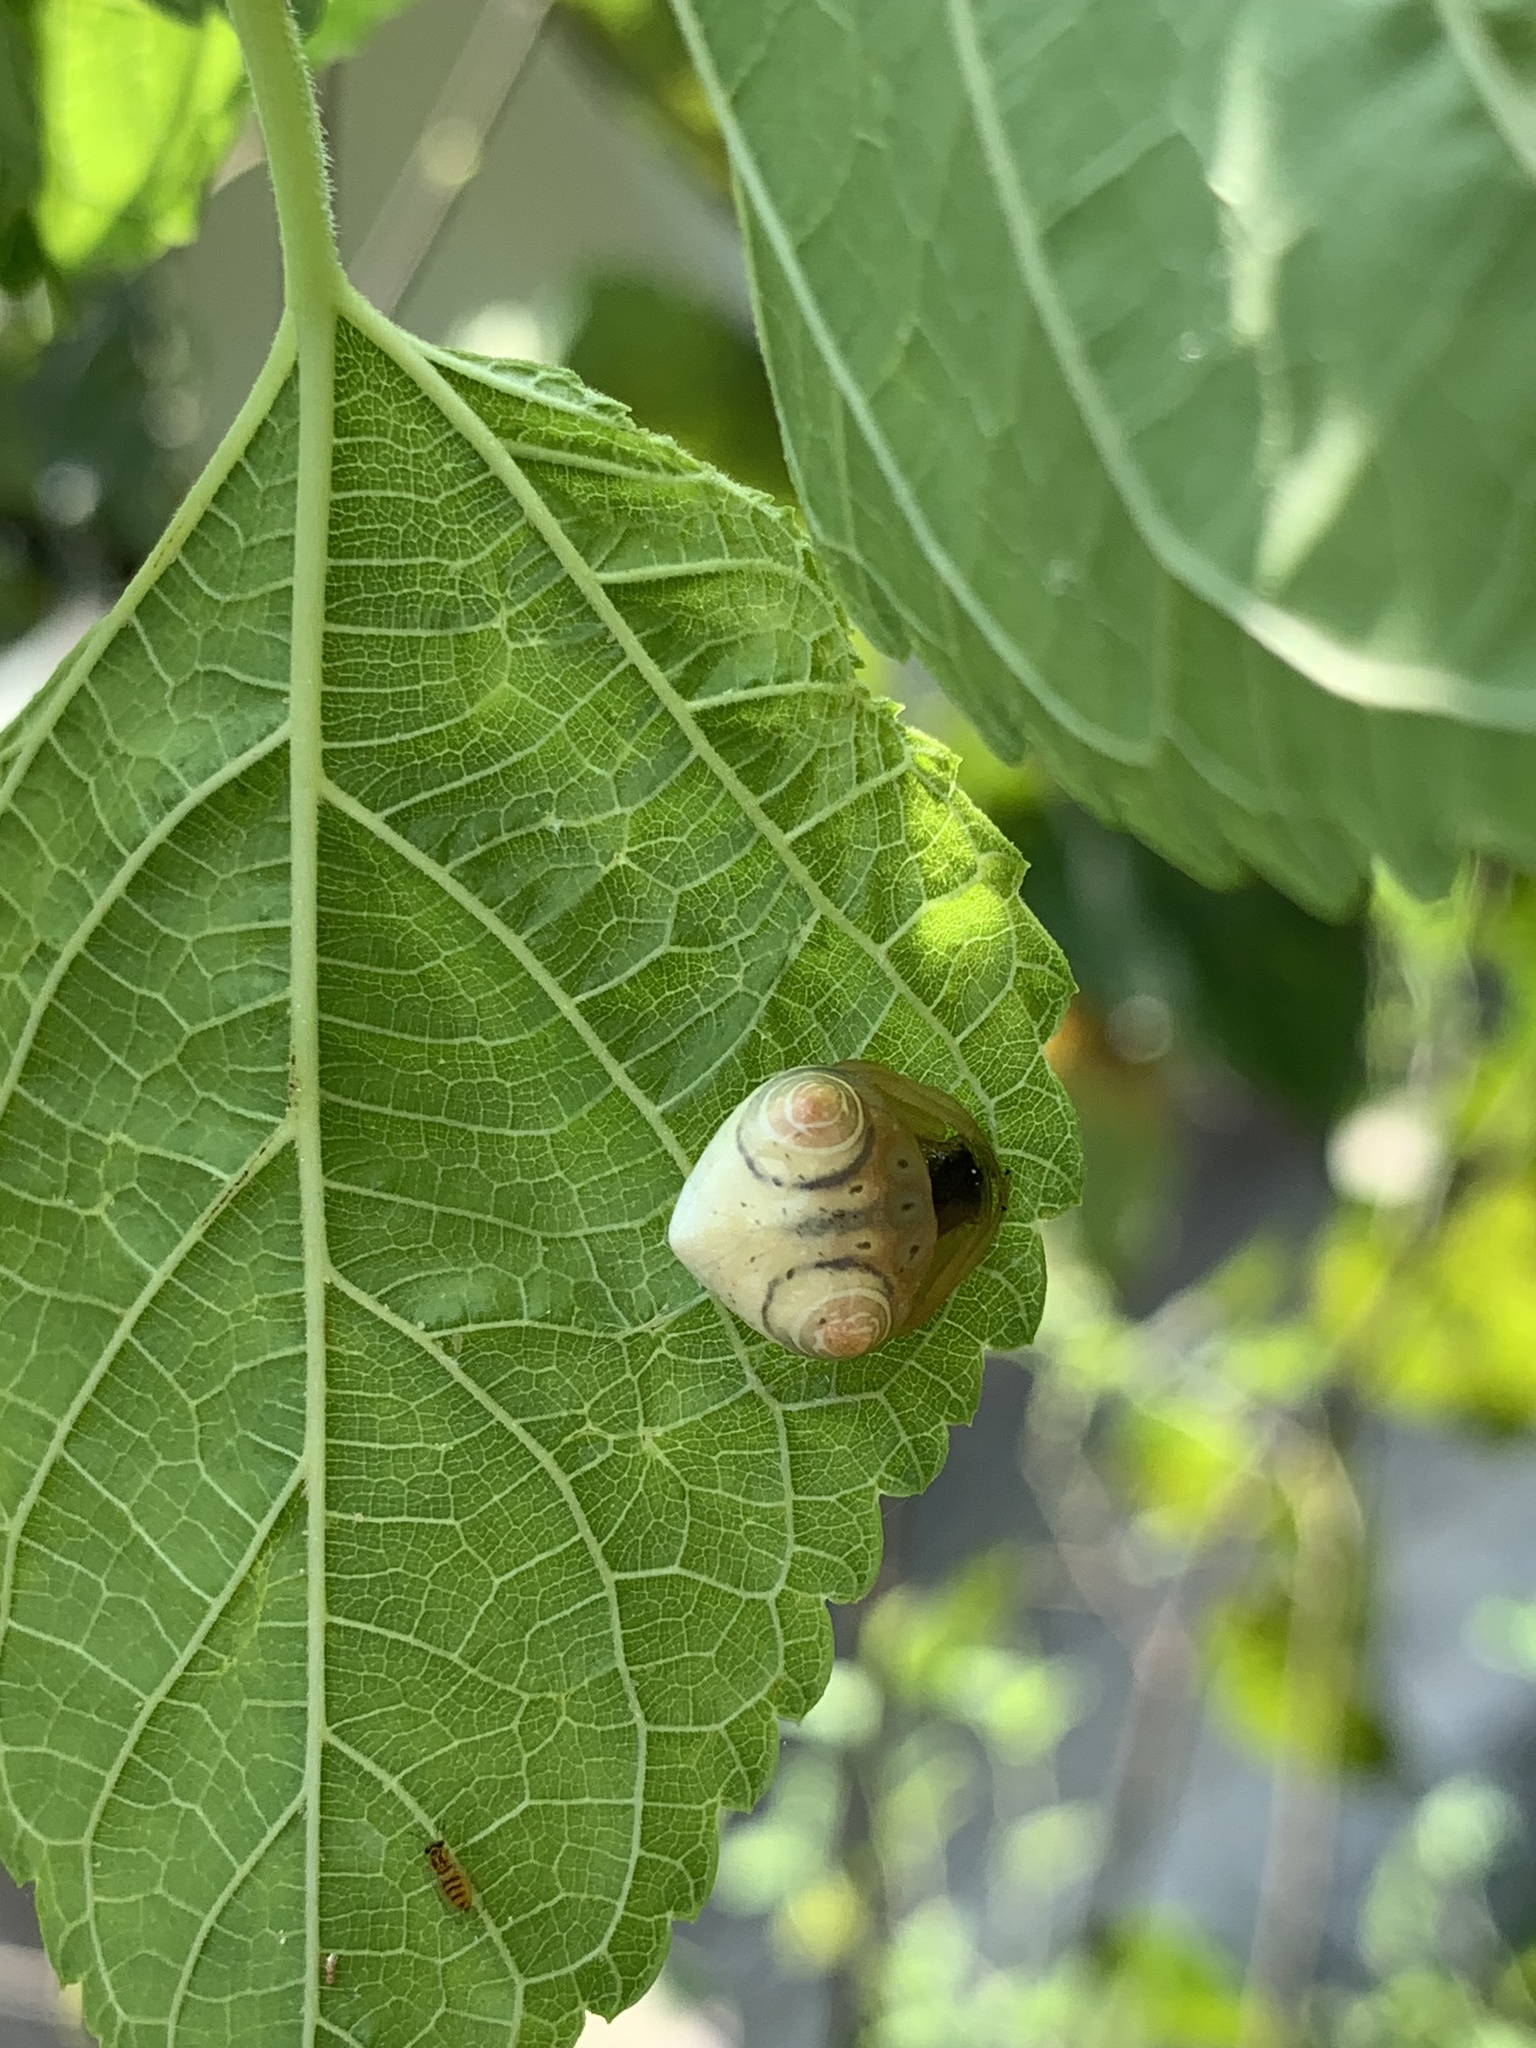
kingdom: Animalia
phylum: Arthropoda
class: Arachnida
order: Araneae
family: Araneidae
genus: Cyrtarachne
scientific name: Cyrtarachne inaequalis
